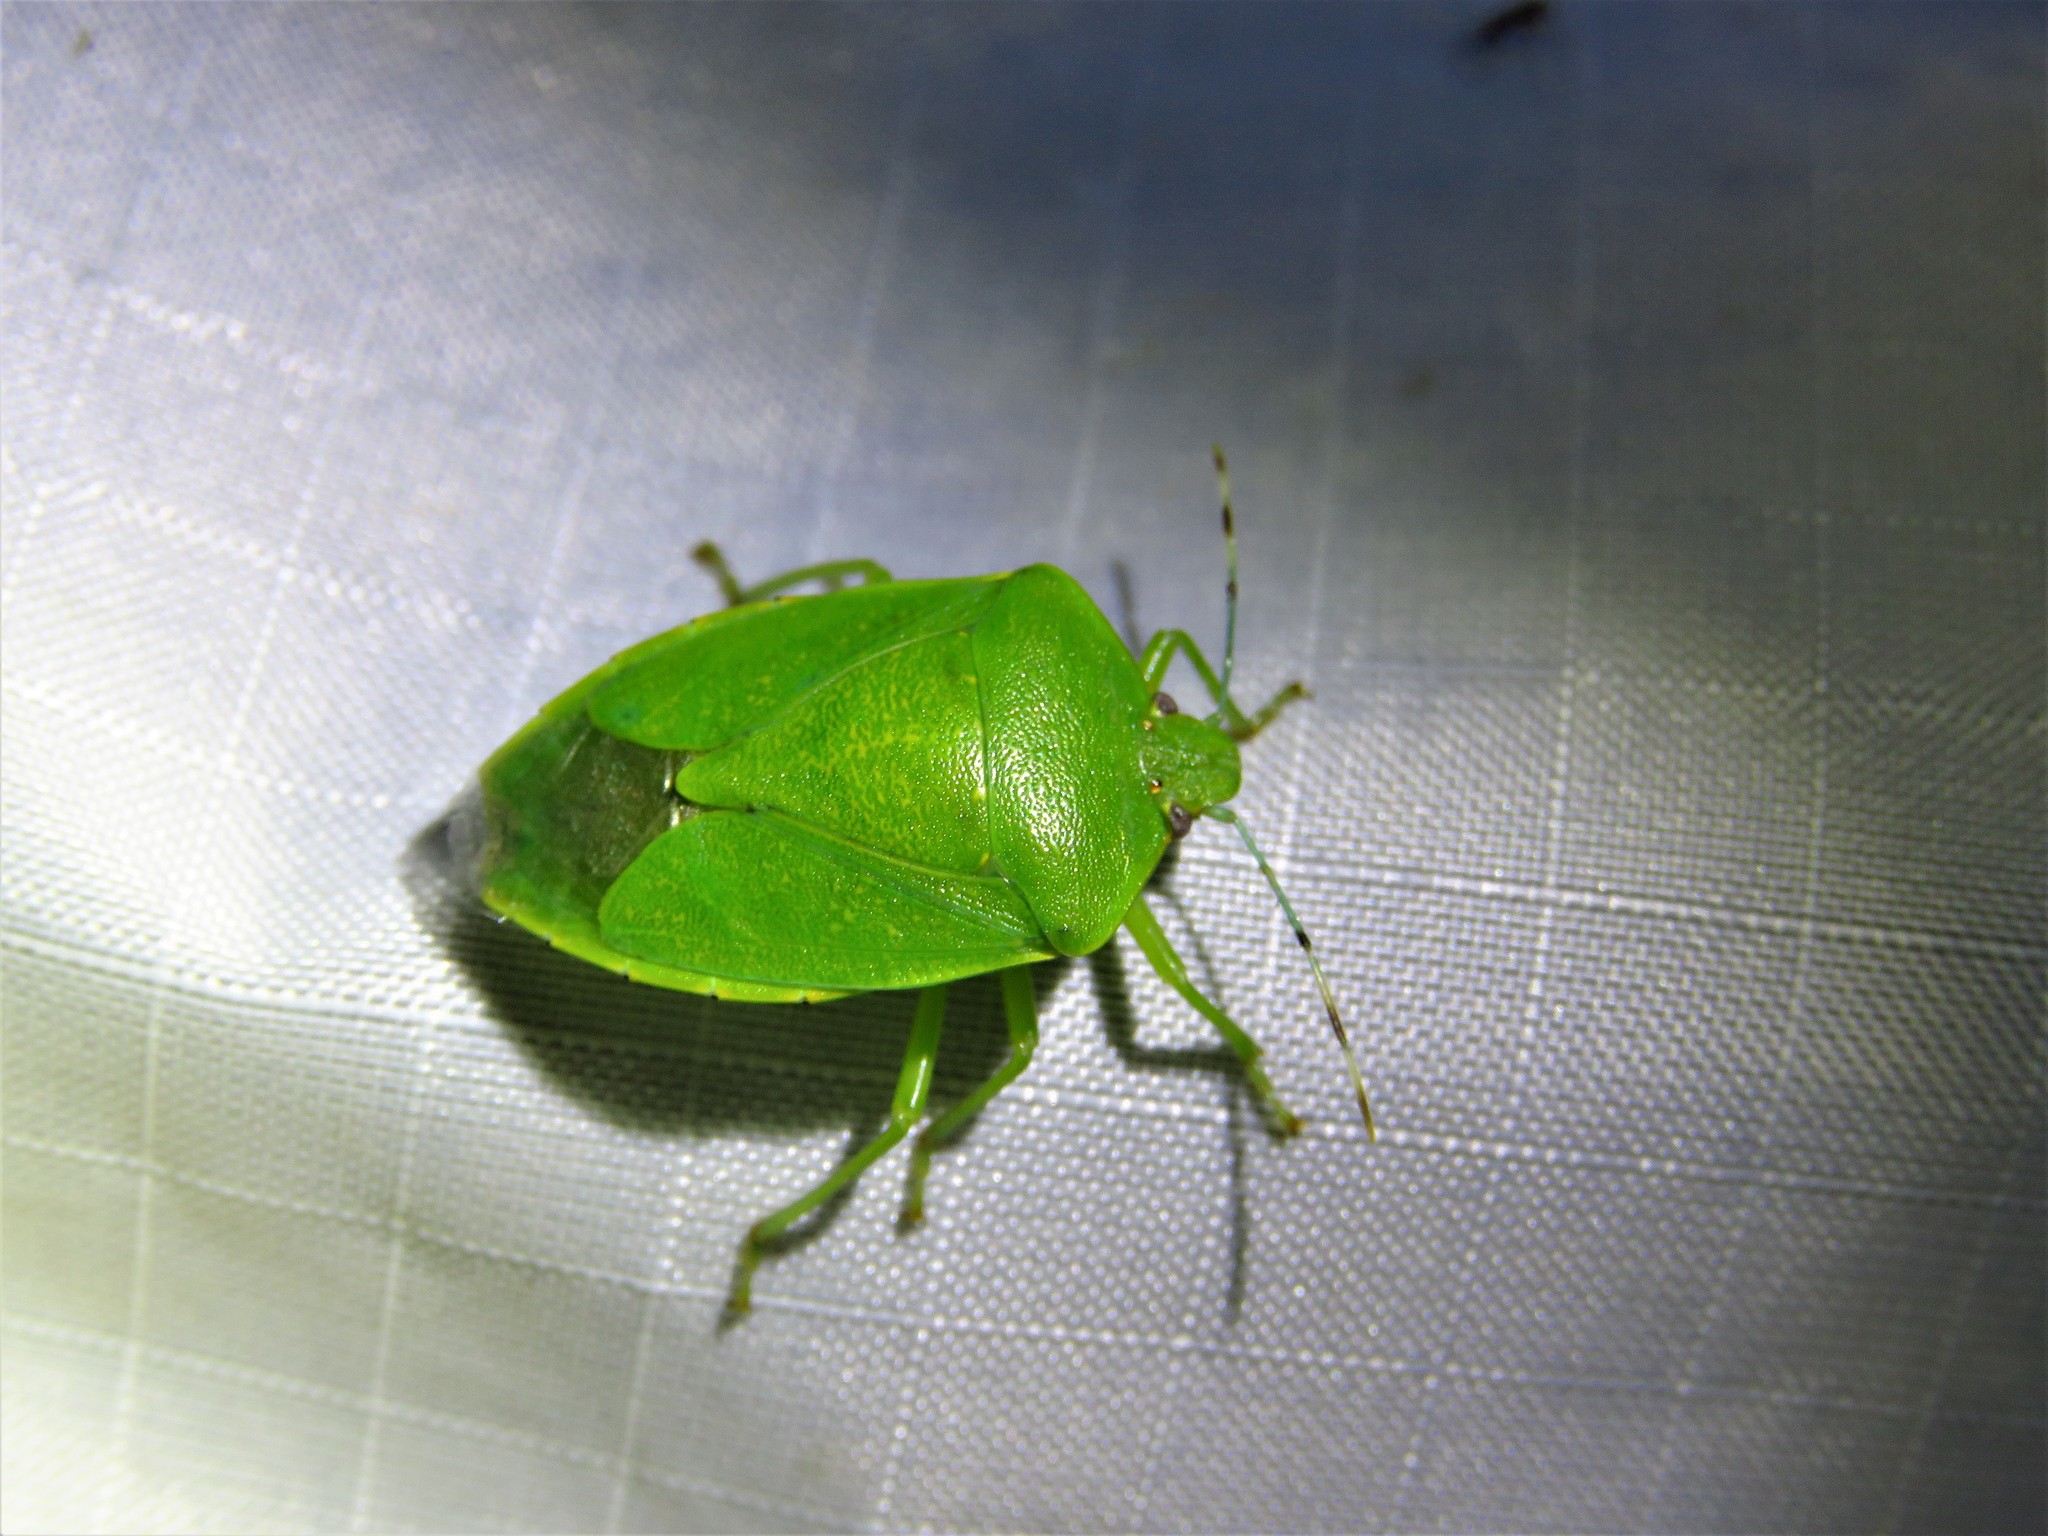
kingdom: Animalia
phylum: Arthropoda
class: Insecta
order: Hemiptera
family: Pentatomidae
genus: Chinavia
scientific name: Chinavia hilaris
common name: Green stink bug
